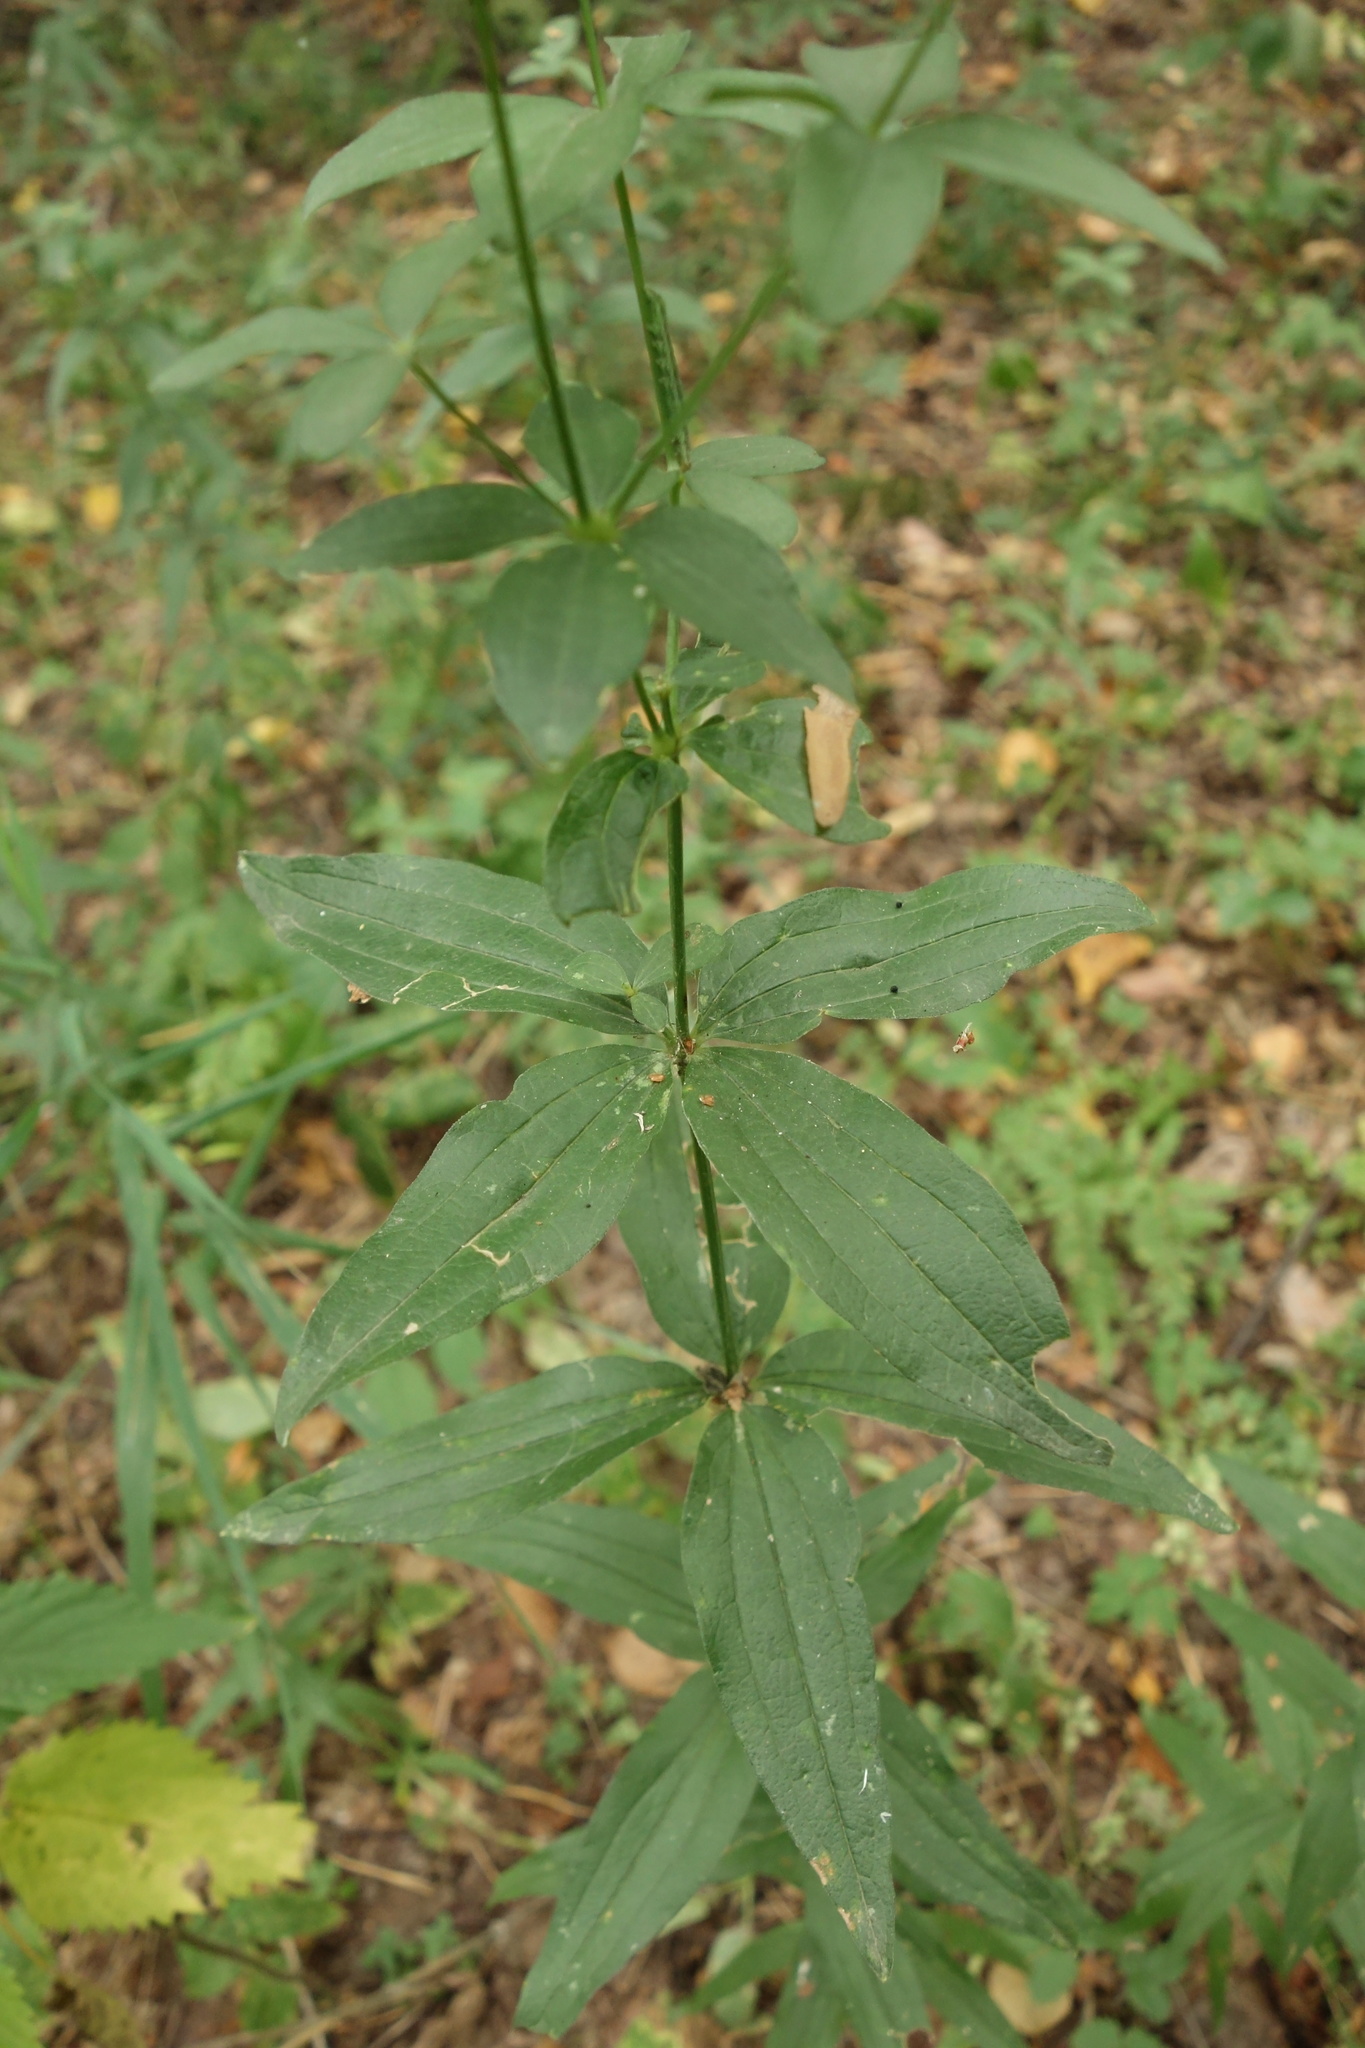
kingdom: Plantae
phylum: Tracheophyta
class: Magnoliopsida
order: Gentianales
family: Rubiaceae
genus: Galium
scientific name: Galium rubioides
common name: European bedstraw
